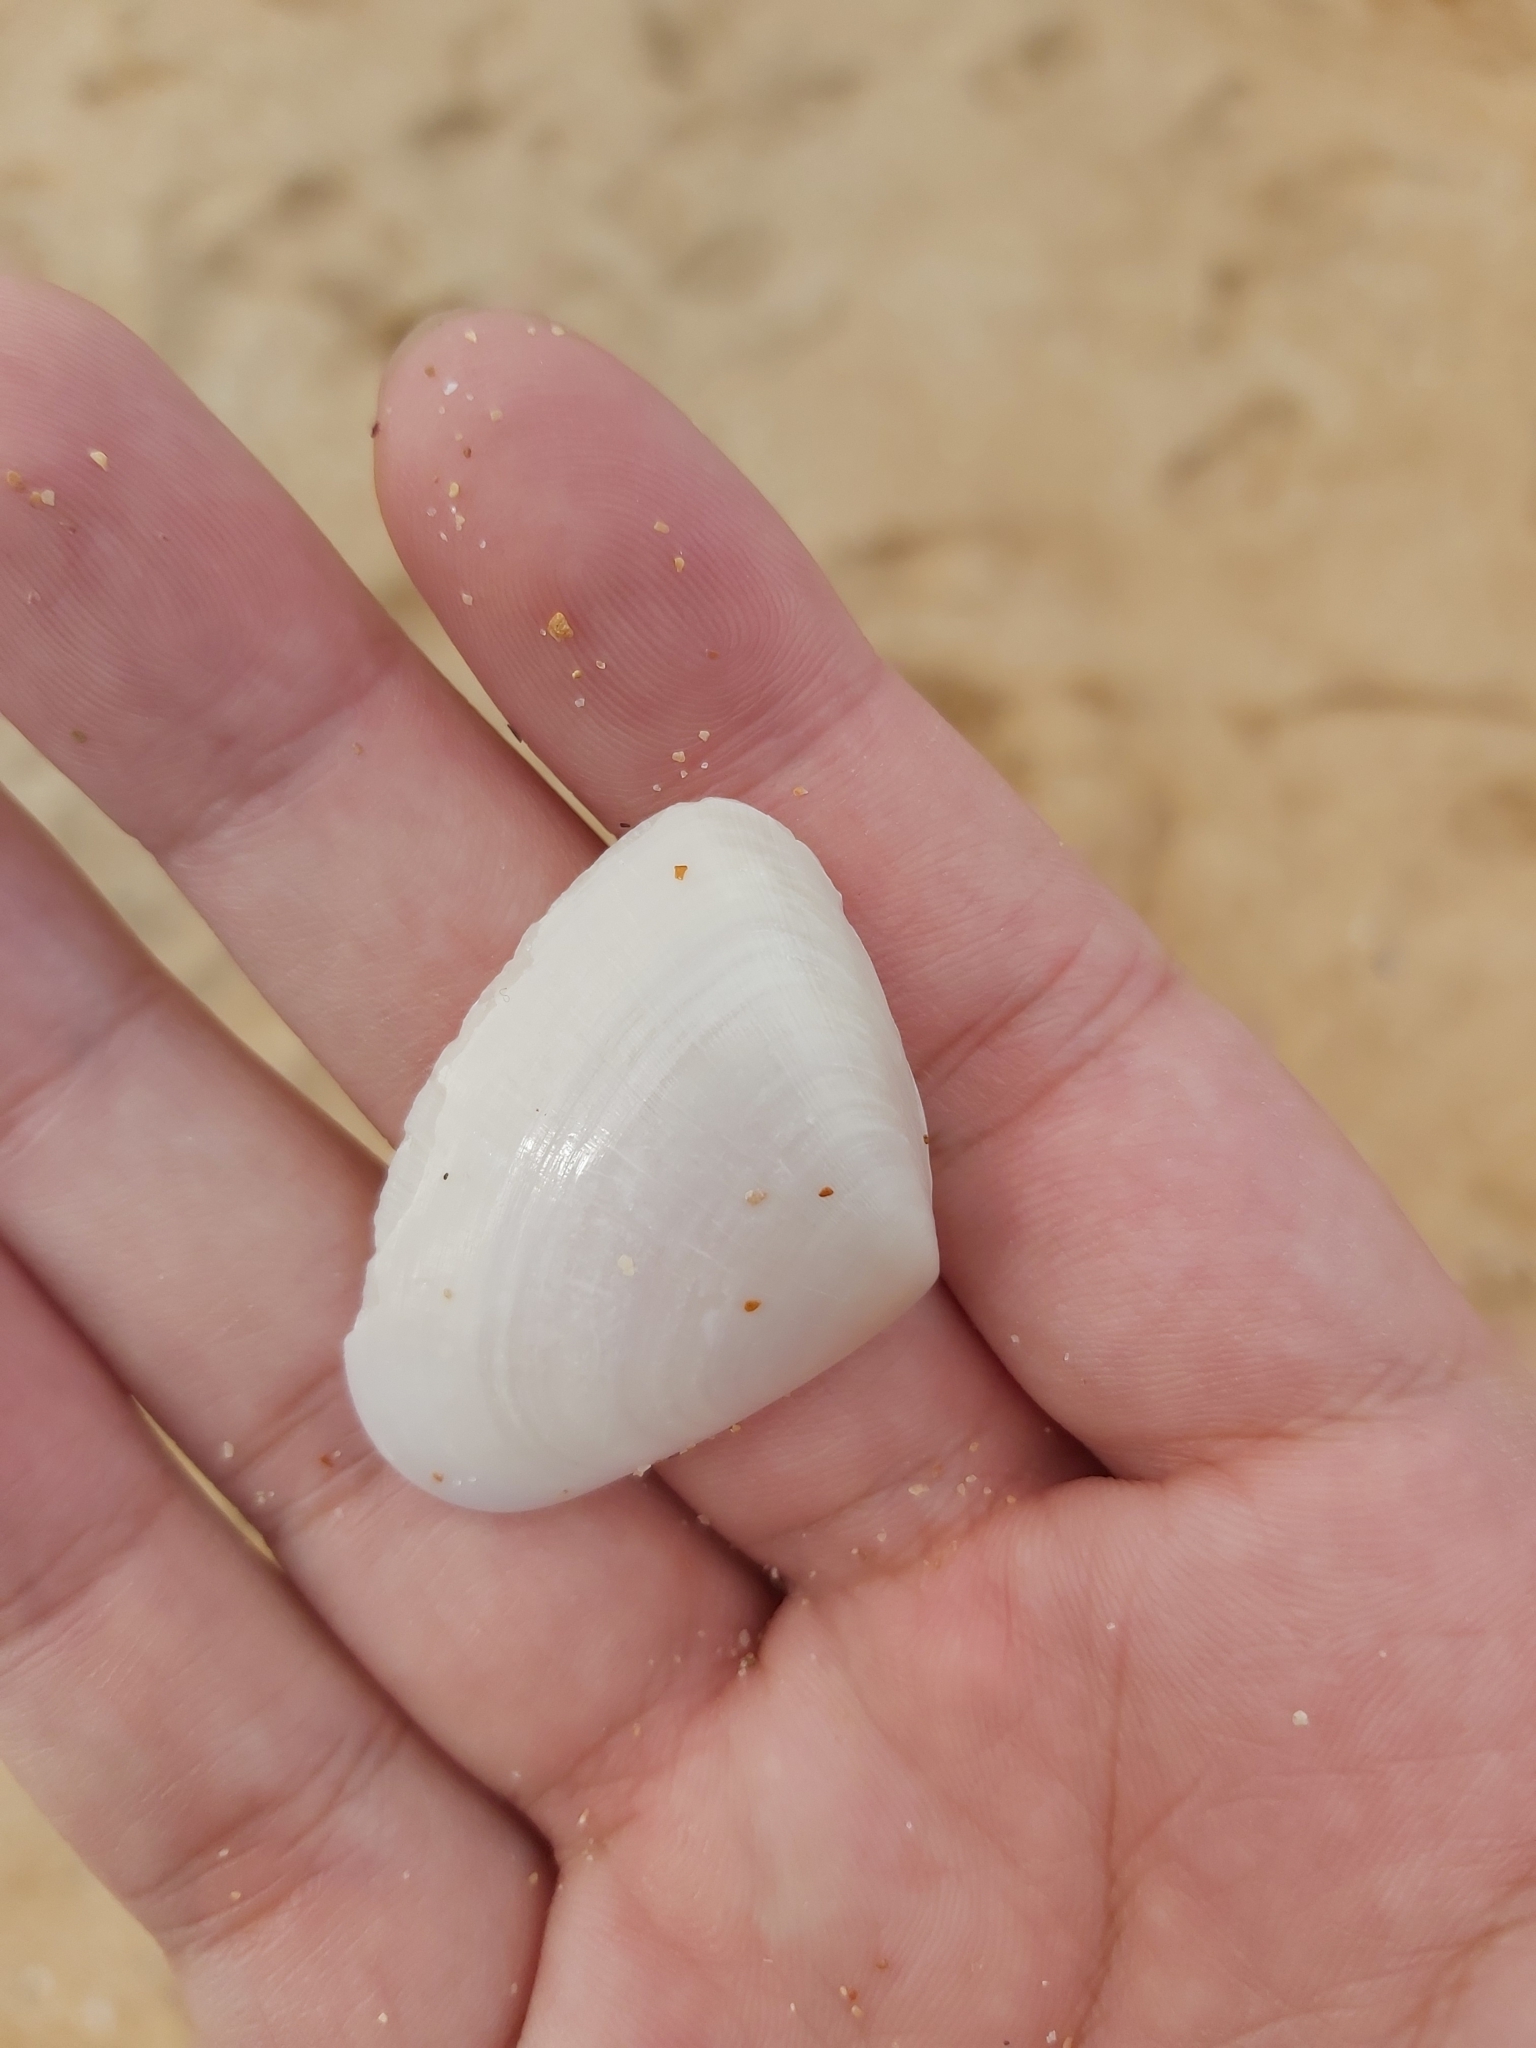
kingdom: Animalia
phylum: Mollusca
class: Bivalvia
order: Cardiida
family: Donacidae
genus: Latona
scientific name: Latona deltoides
